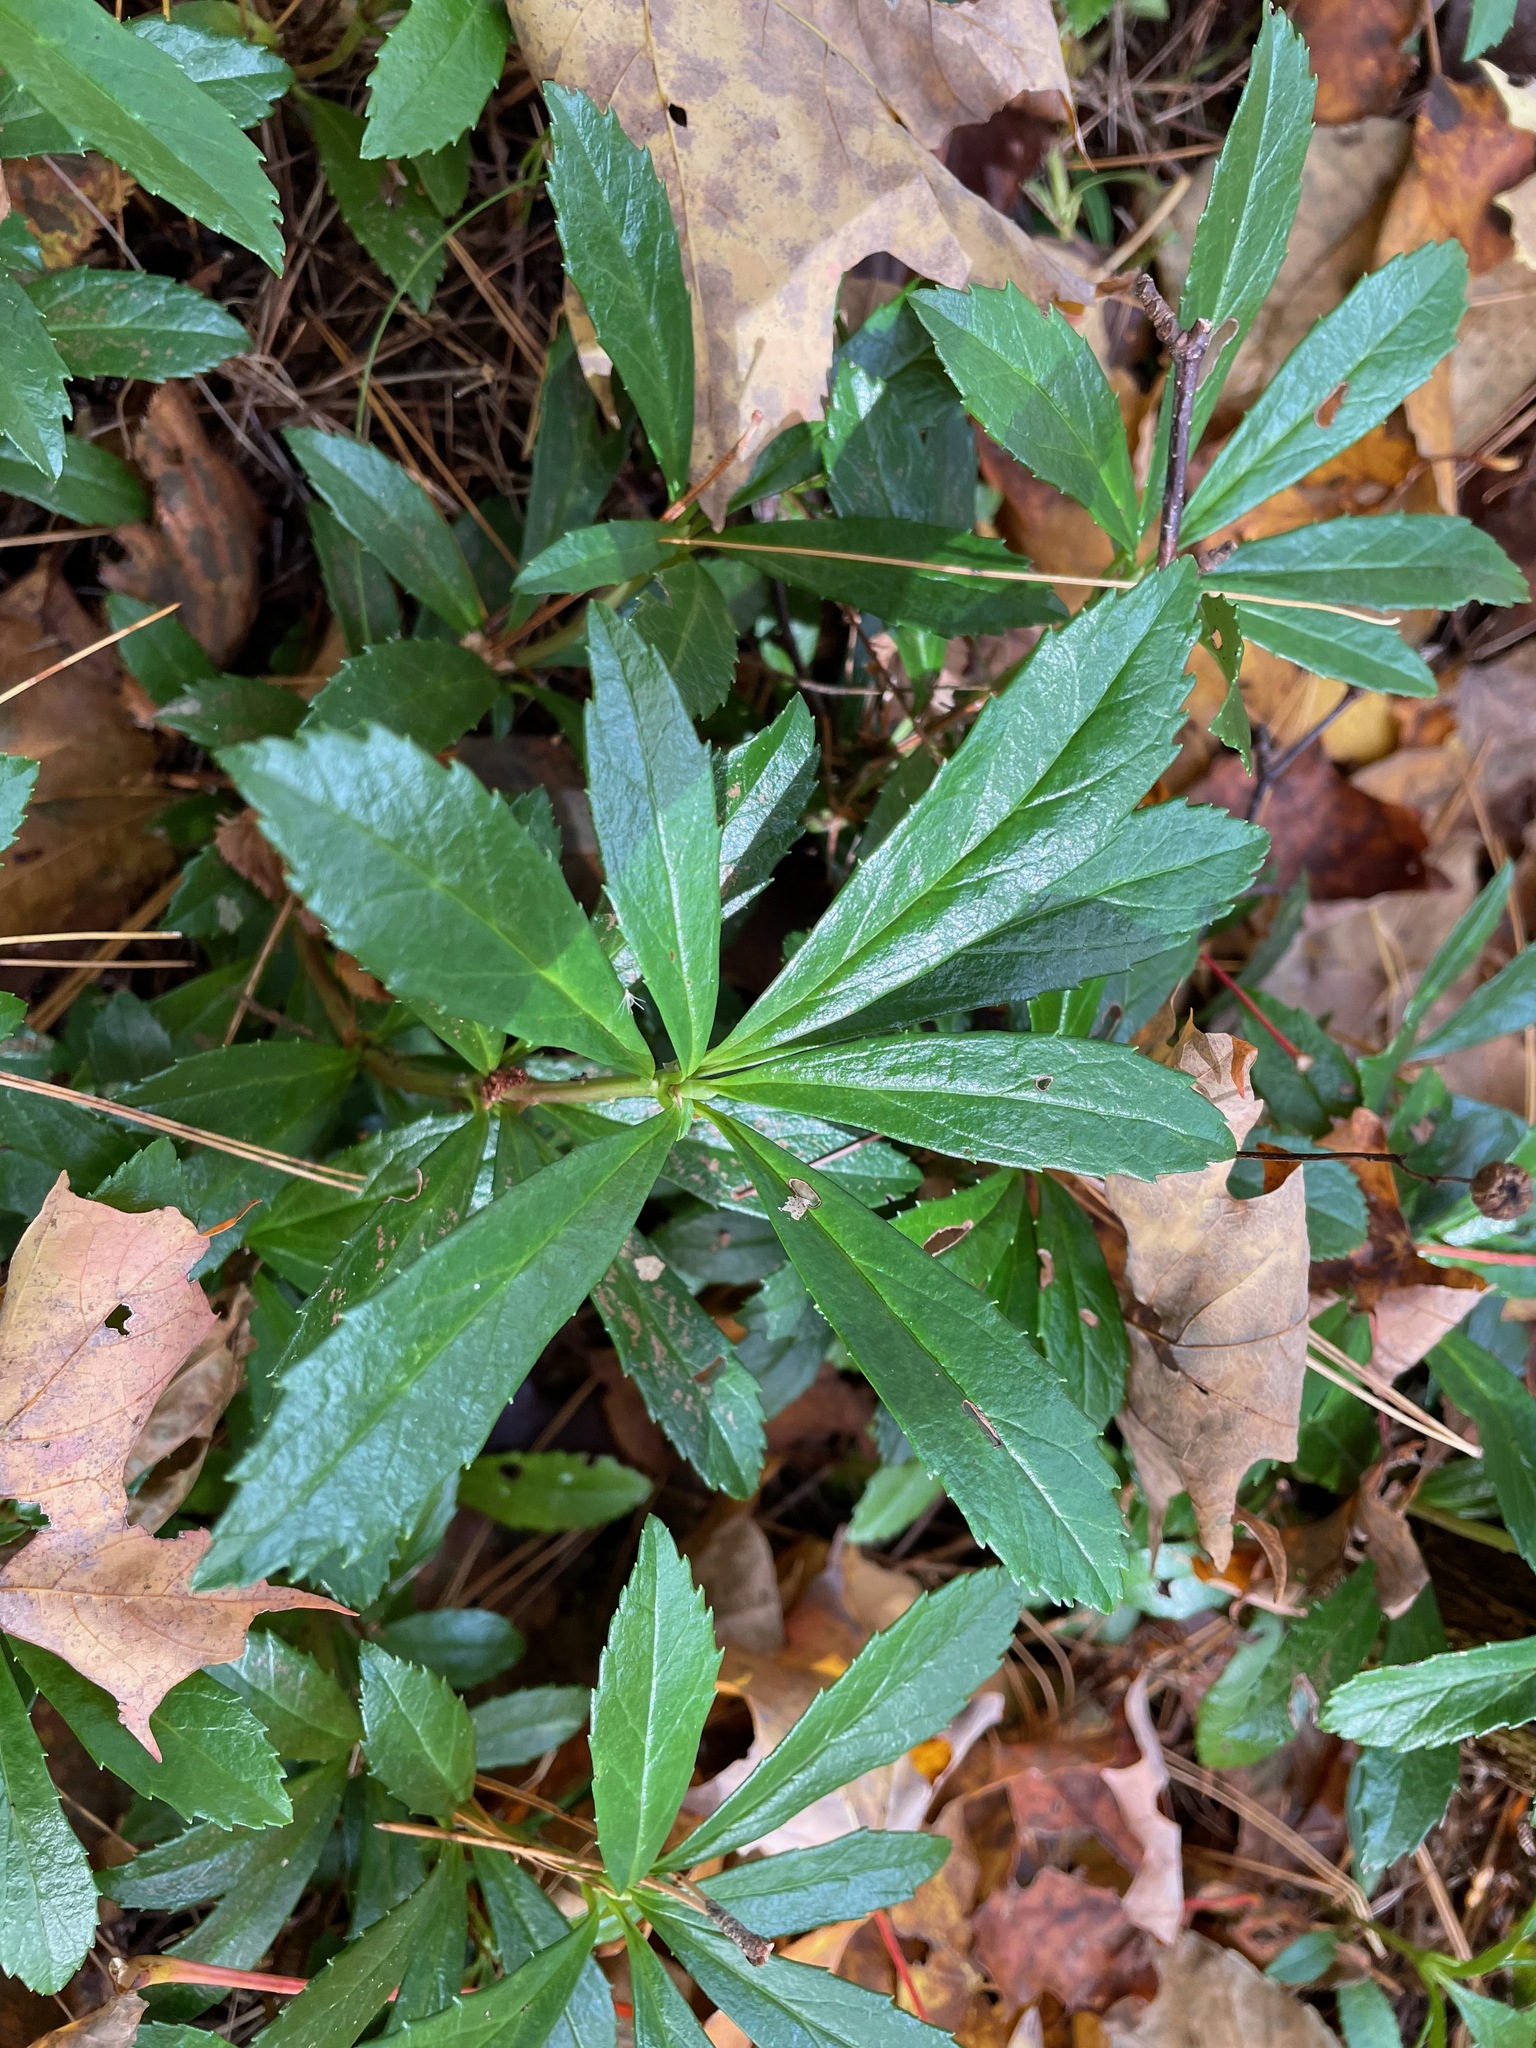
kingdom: Plantae
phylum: Tracheophyta
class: Magnoliopsida
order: Ericales
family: Ericaceae
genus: Chimaphila
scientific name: Chimaphila umbellata
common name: Pipsissewa
